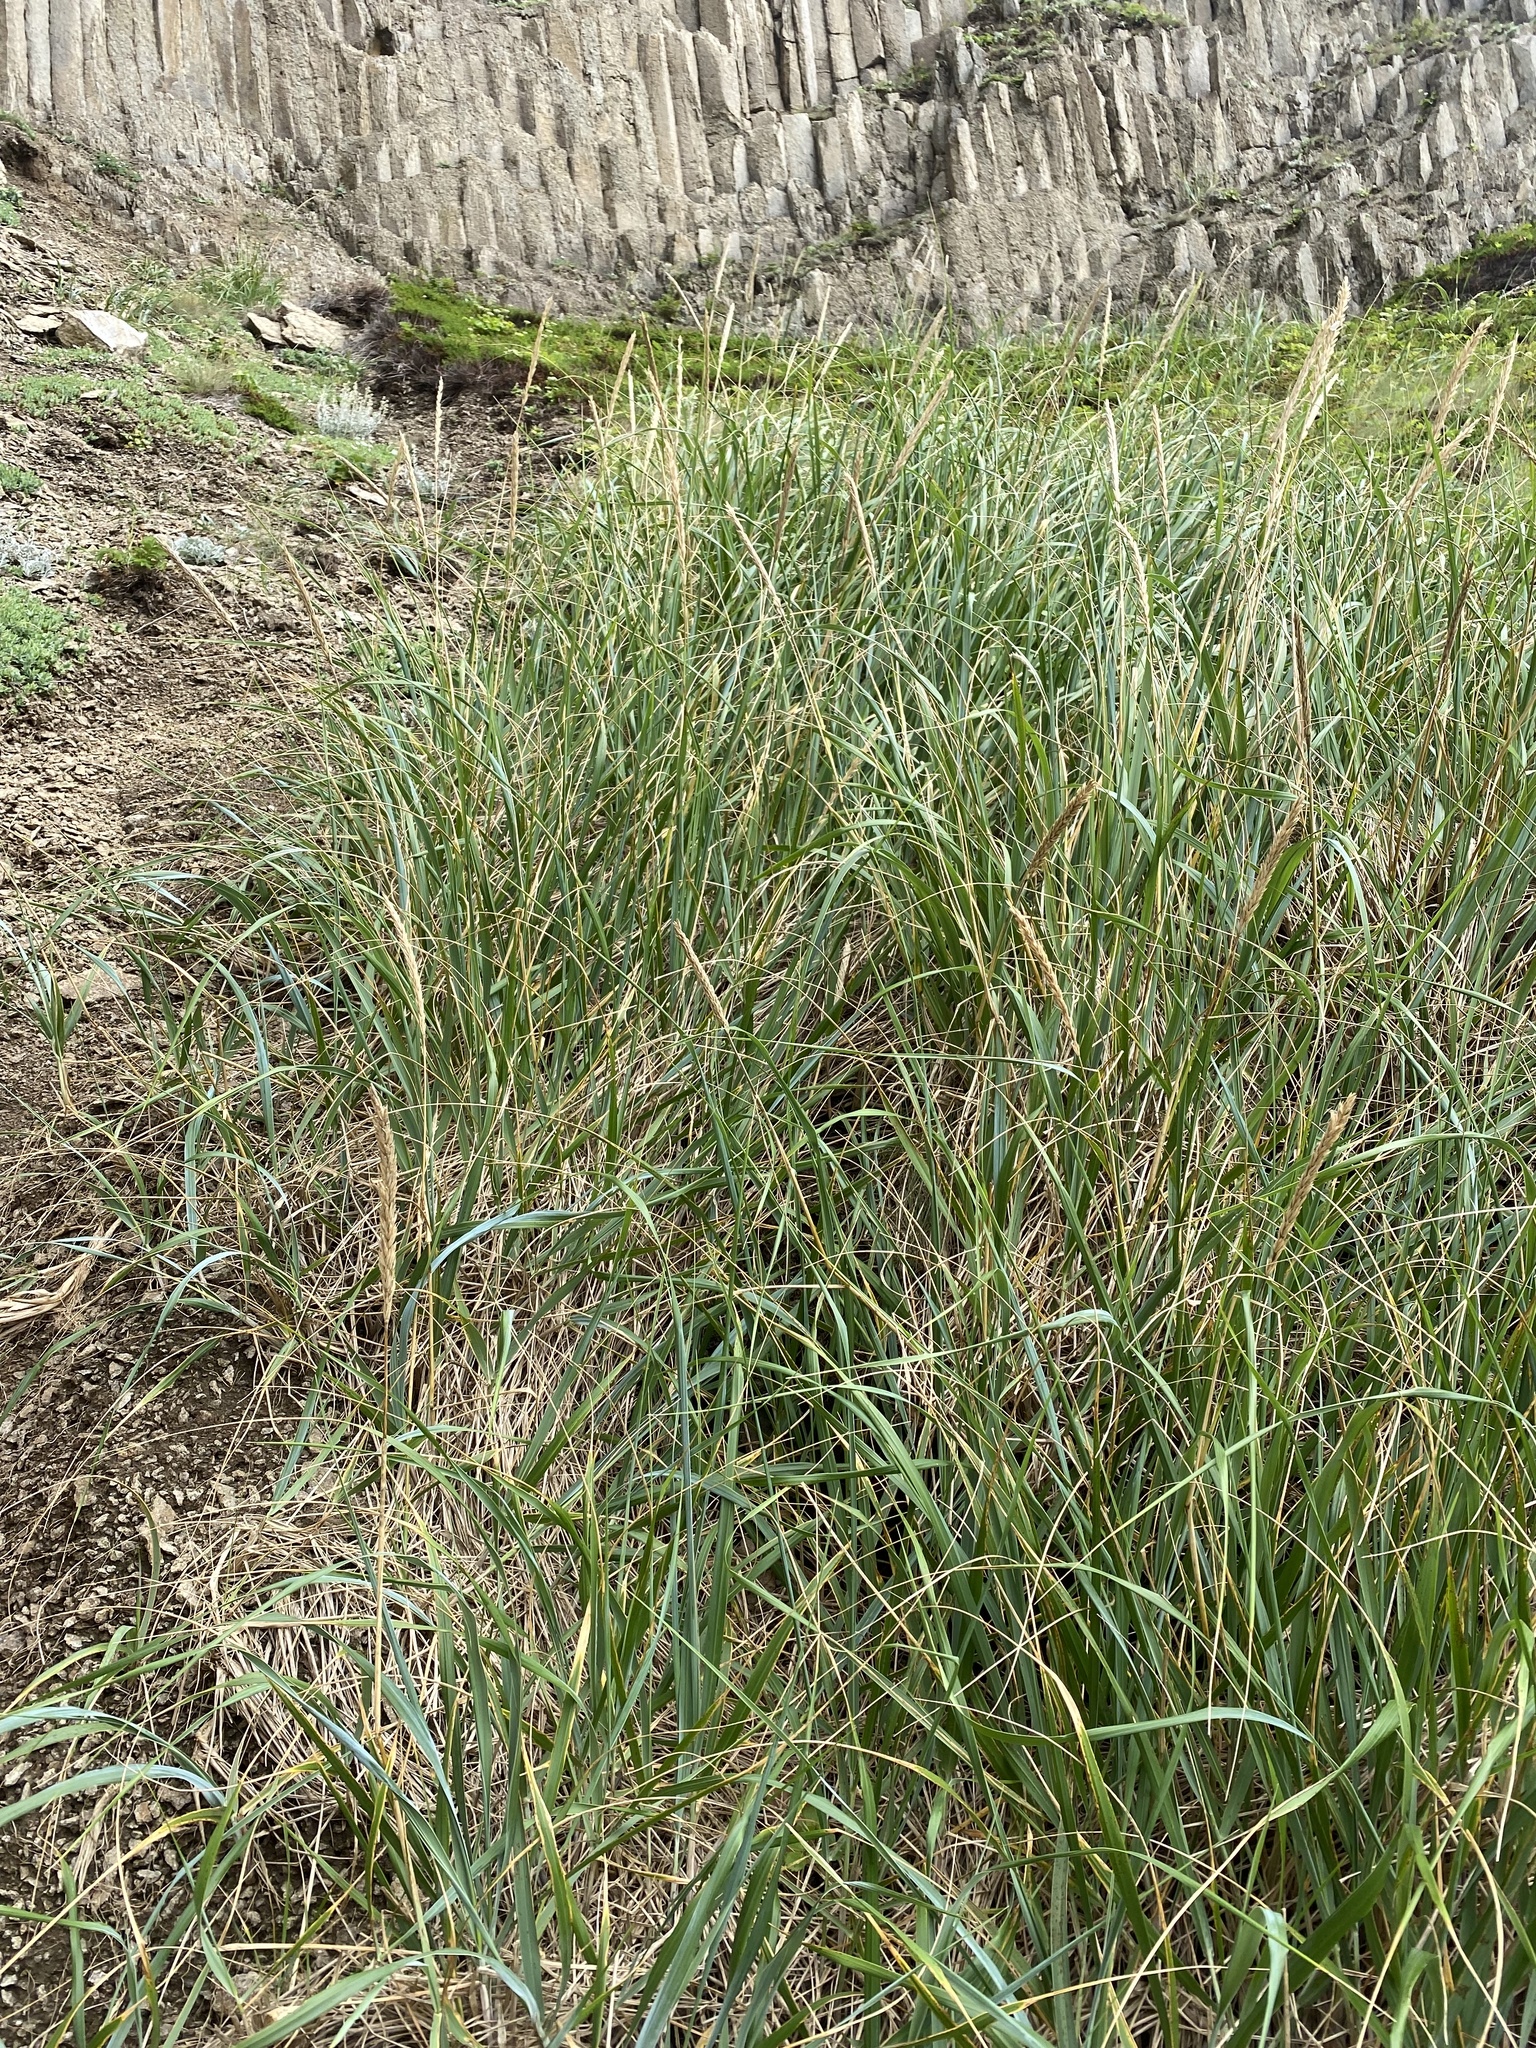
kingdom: Plantae
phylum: Tracheophyta
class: Liliopsida
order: Poales
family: Poaceae
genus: Leymus
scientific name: Leymus mollis
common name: American dune grass
